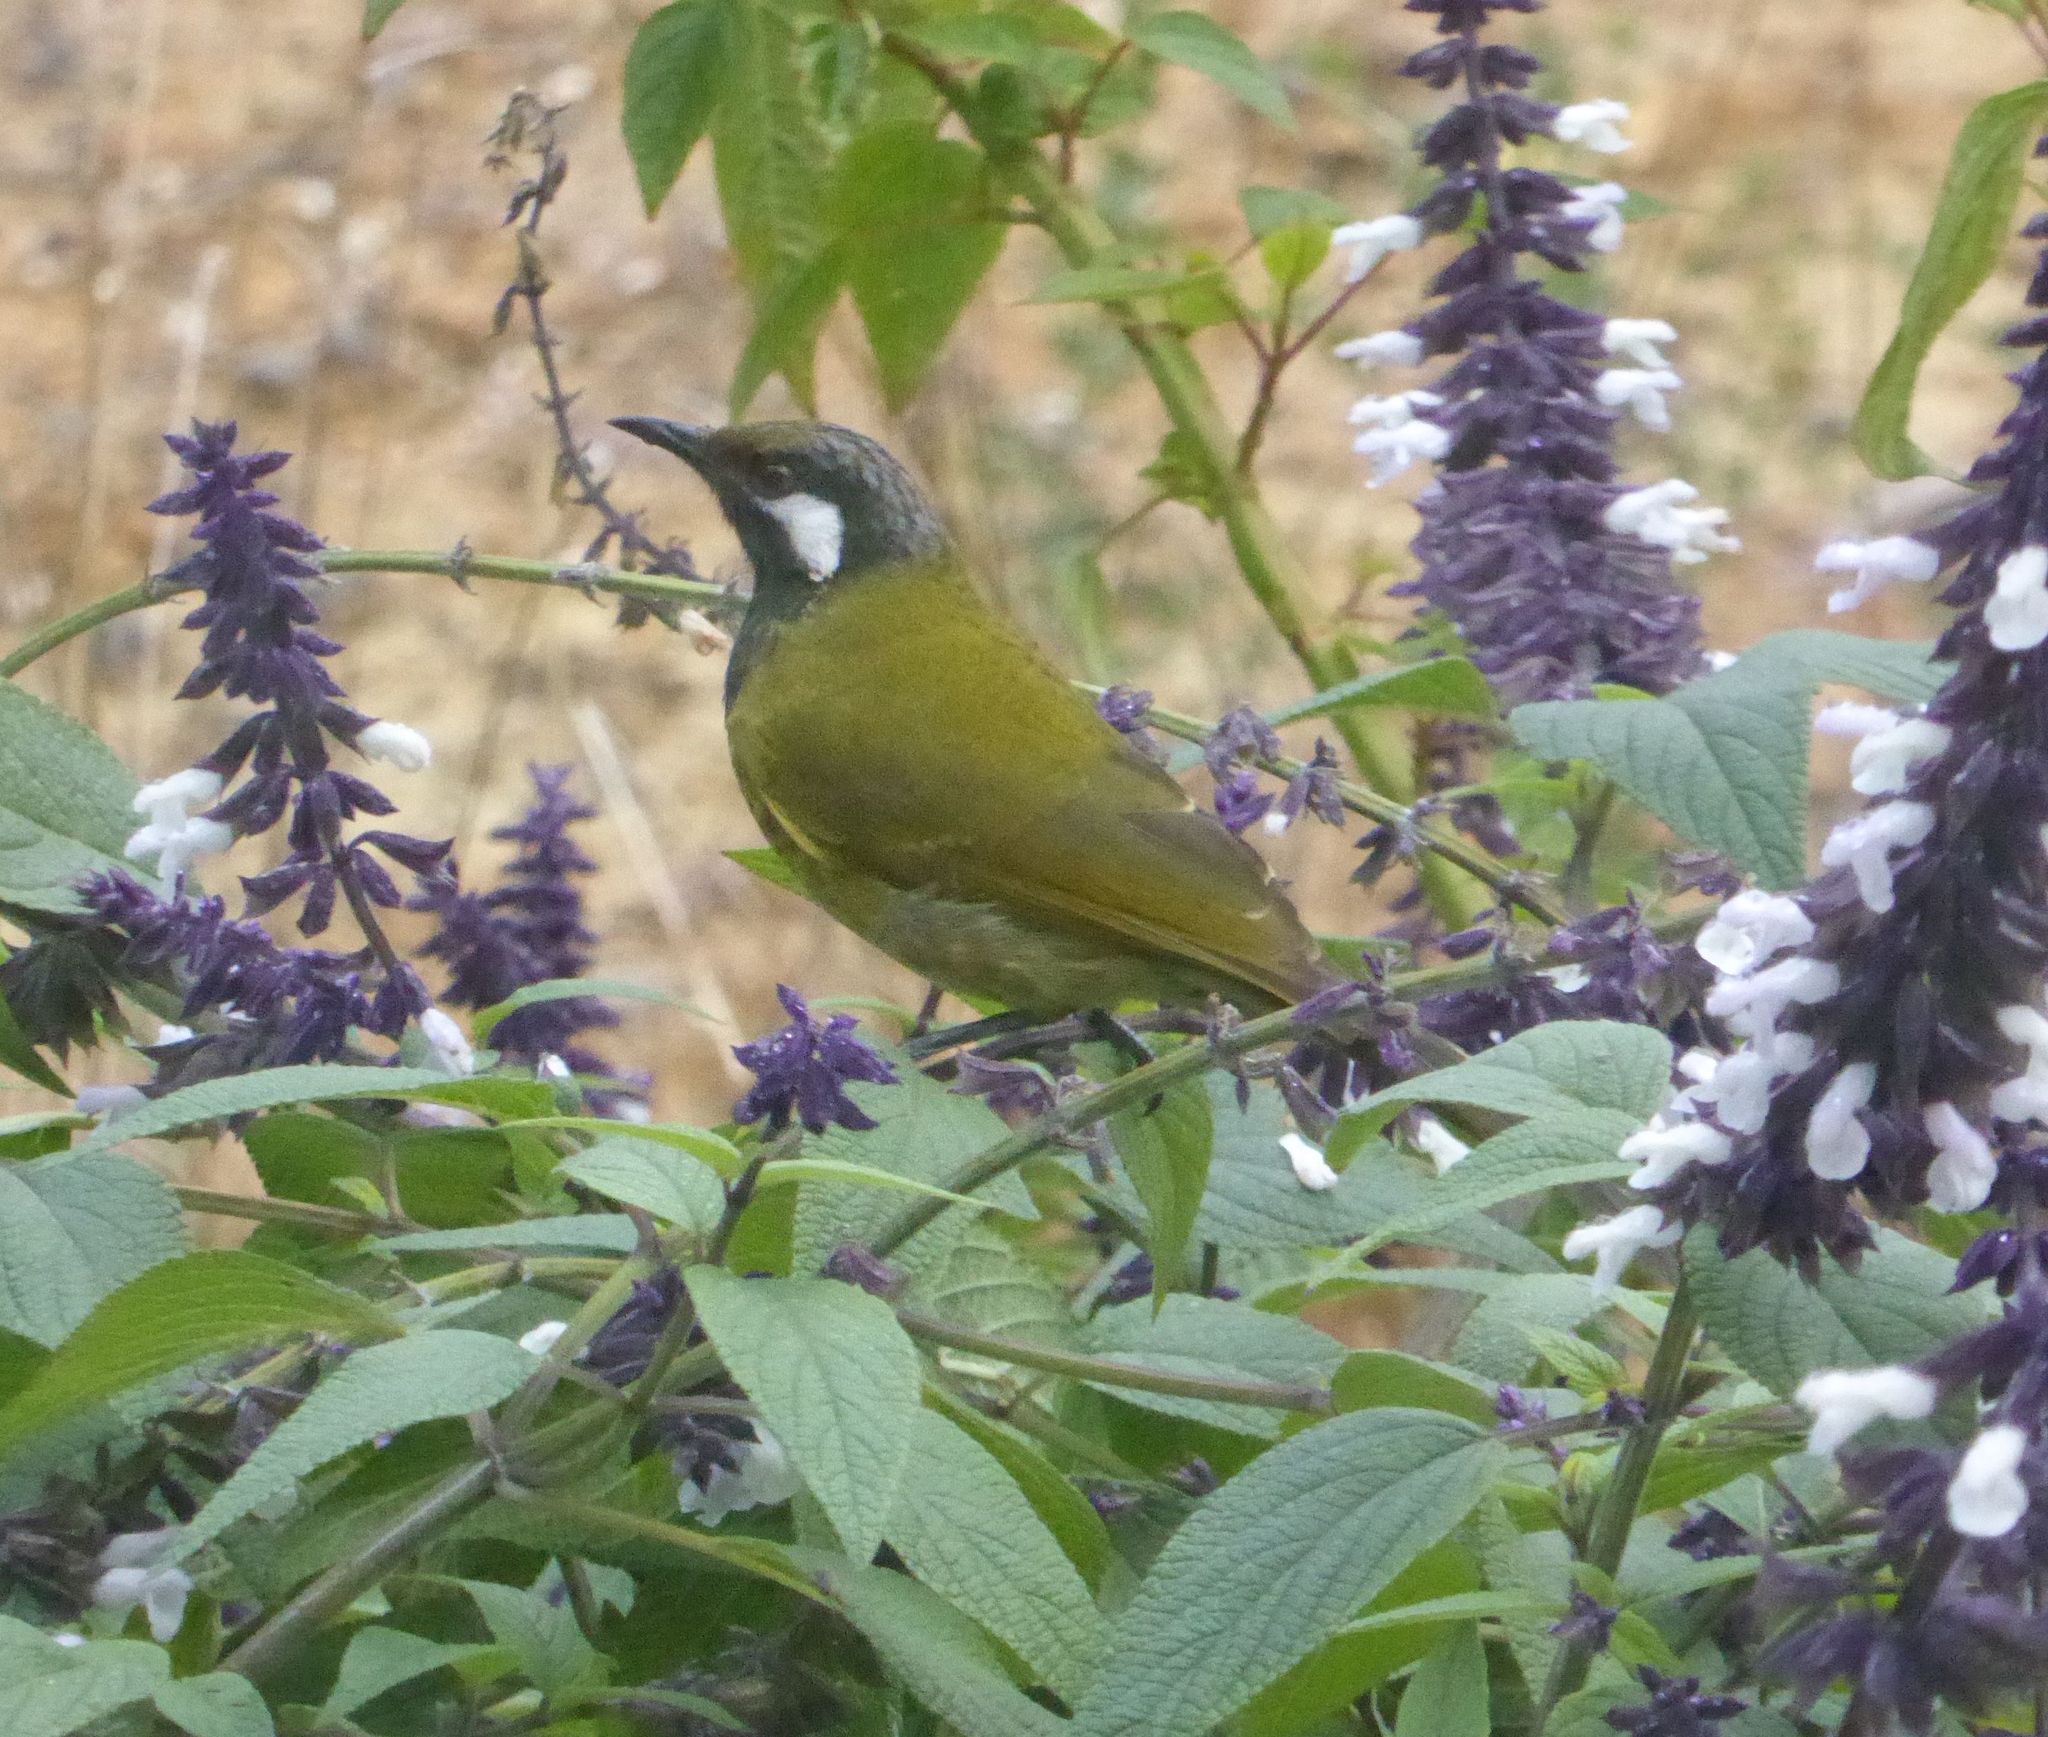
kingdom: Animalia
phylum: Chordata
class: Aves
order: Passeriformes
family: Meliphagidae
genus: Nesoptilotis
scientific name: Nesoptilotis leucotis
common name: White-eared honeyeater
